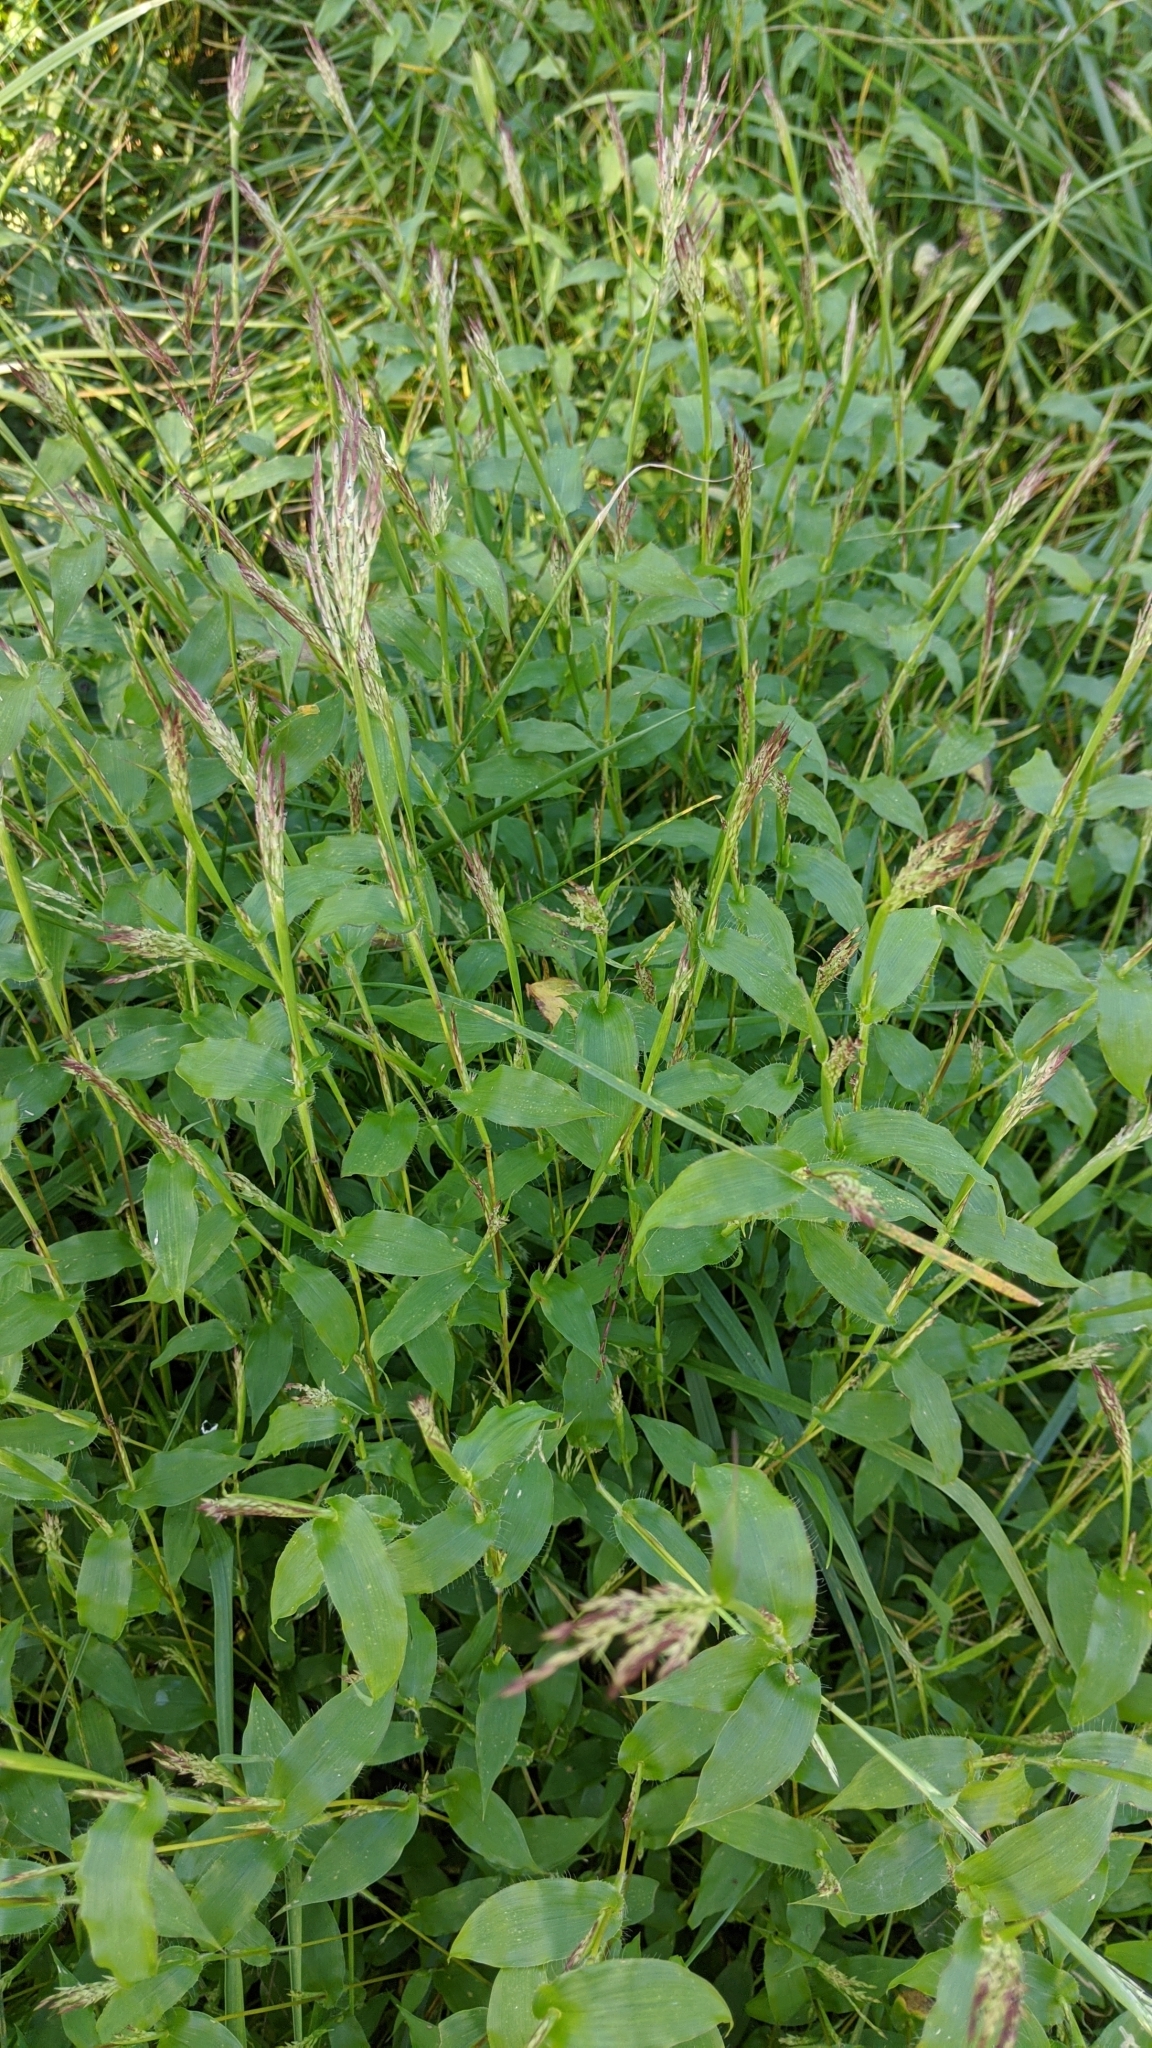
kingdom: Plantae
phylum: Tracheophyta
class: Liliopsida
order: Poales
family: Poaceae
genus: Arthraxon
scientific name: Arthraxon hispidus
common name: Small carpgrass
